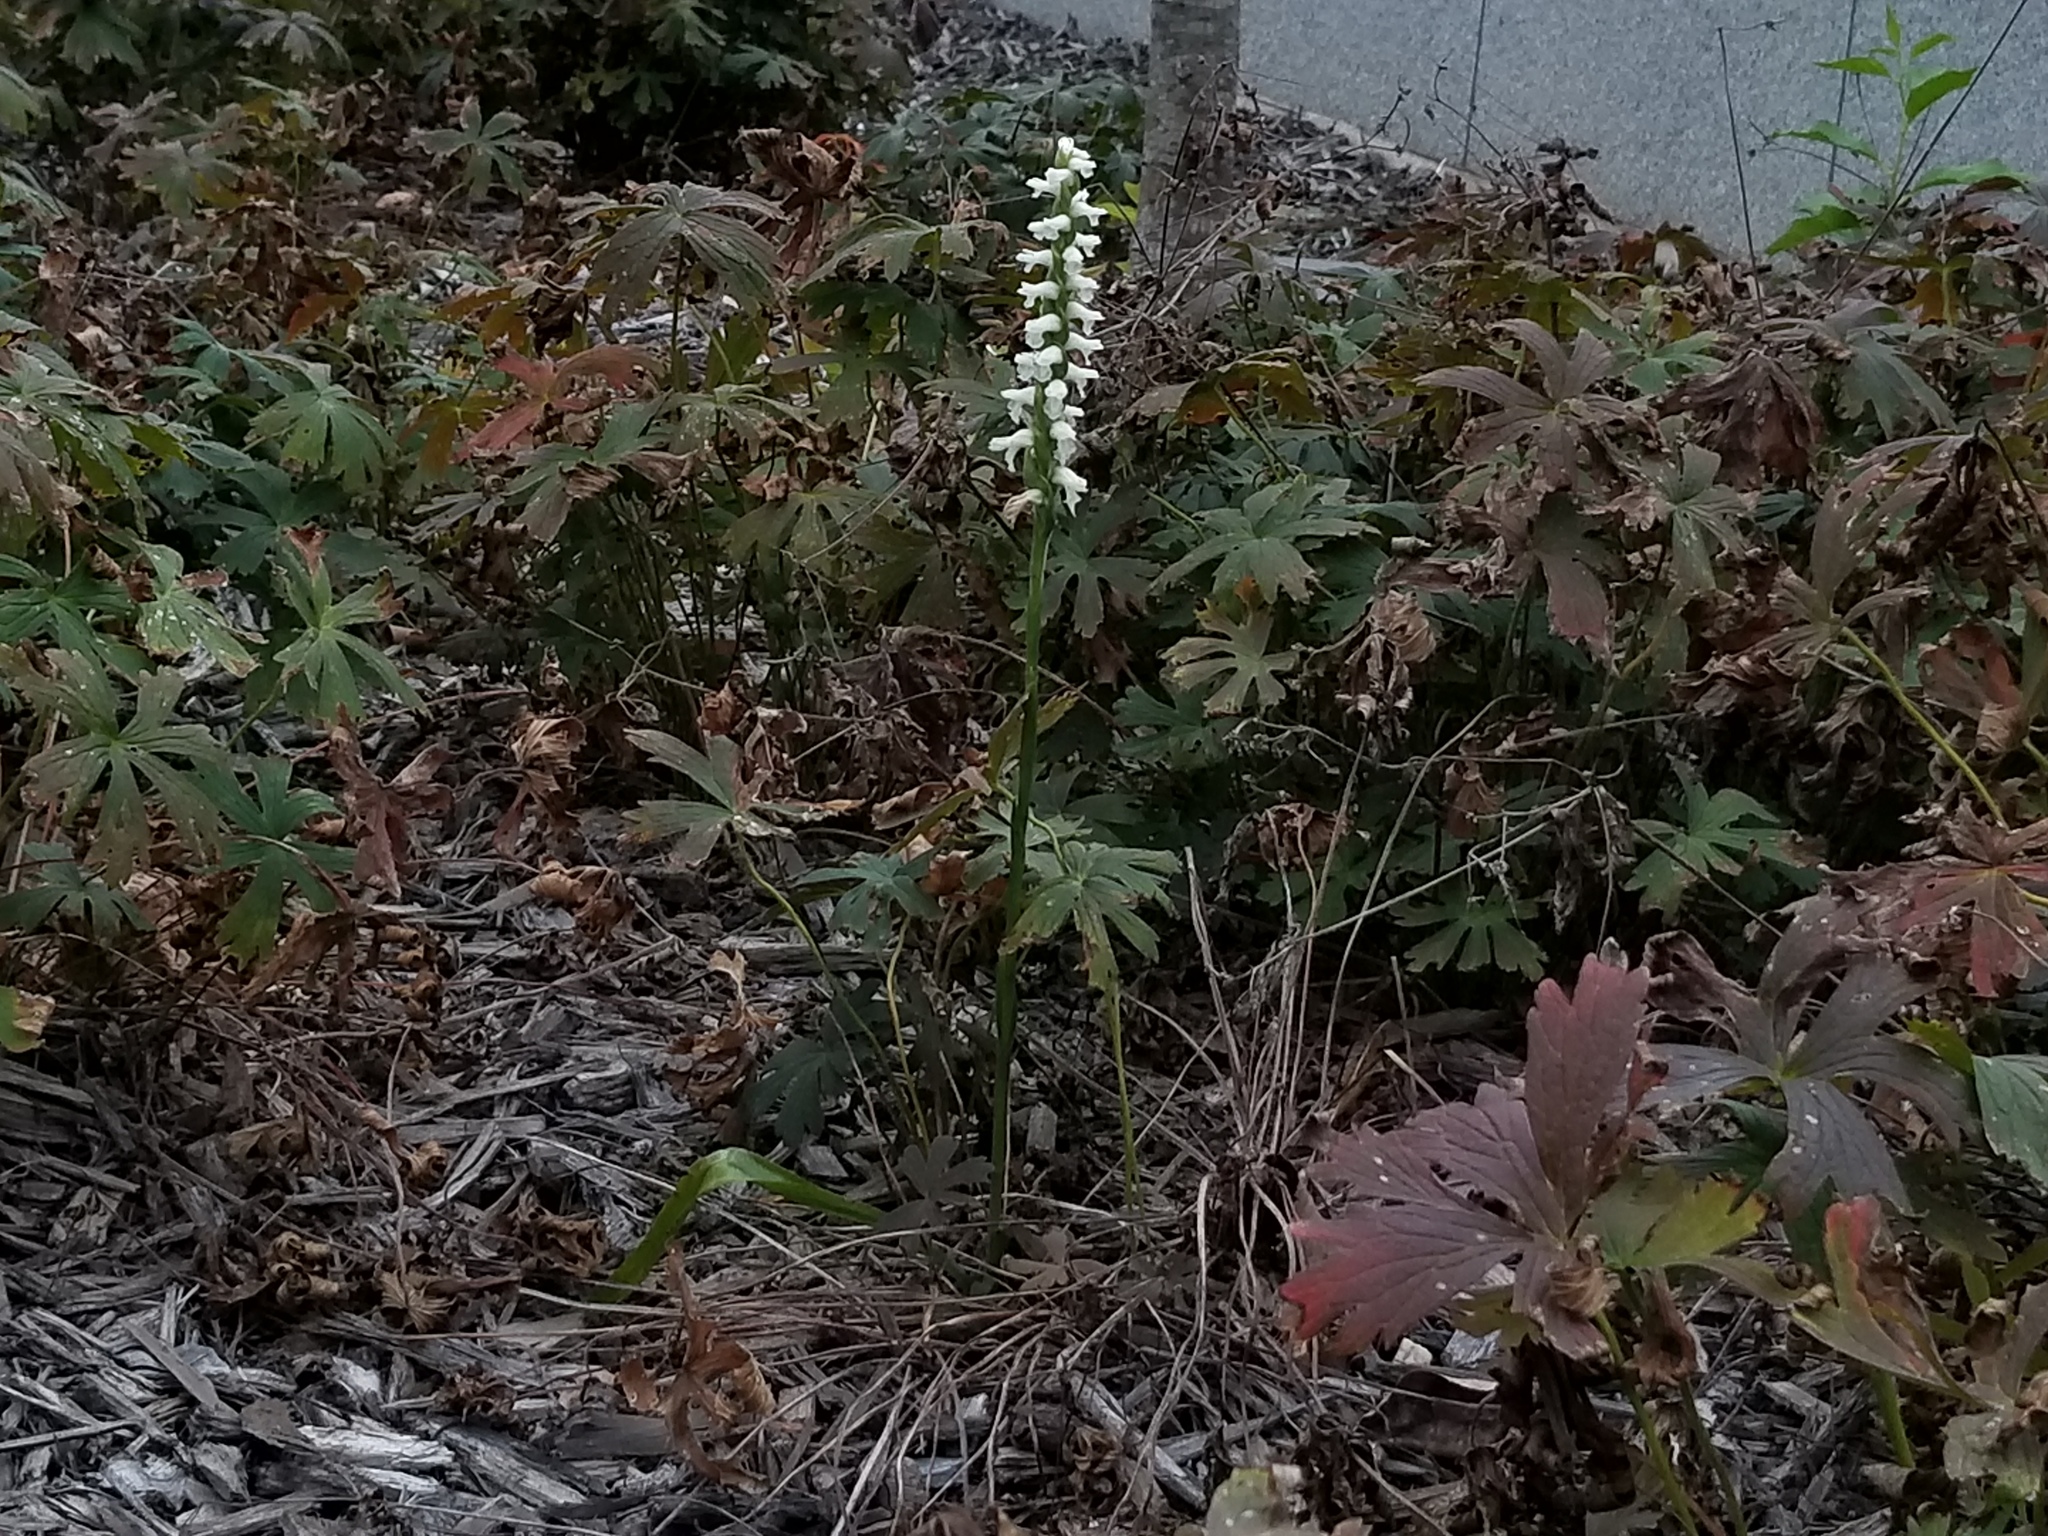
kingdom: Plantae
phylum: Tracheophyta
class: Liliopsida
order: Asparagales
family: Orchidaceae
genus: Spiranthes
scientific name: Spiranthes cernua
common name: Dropping ladies'-tresses
